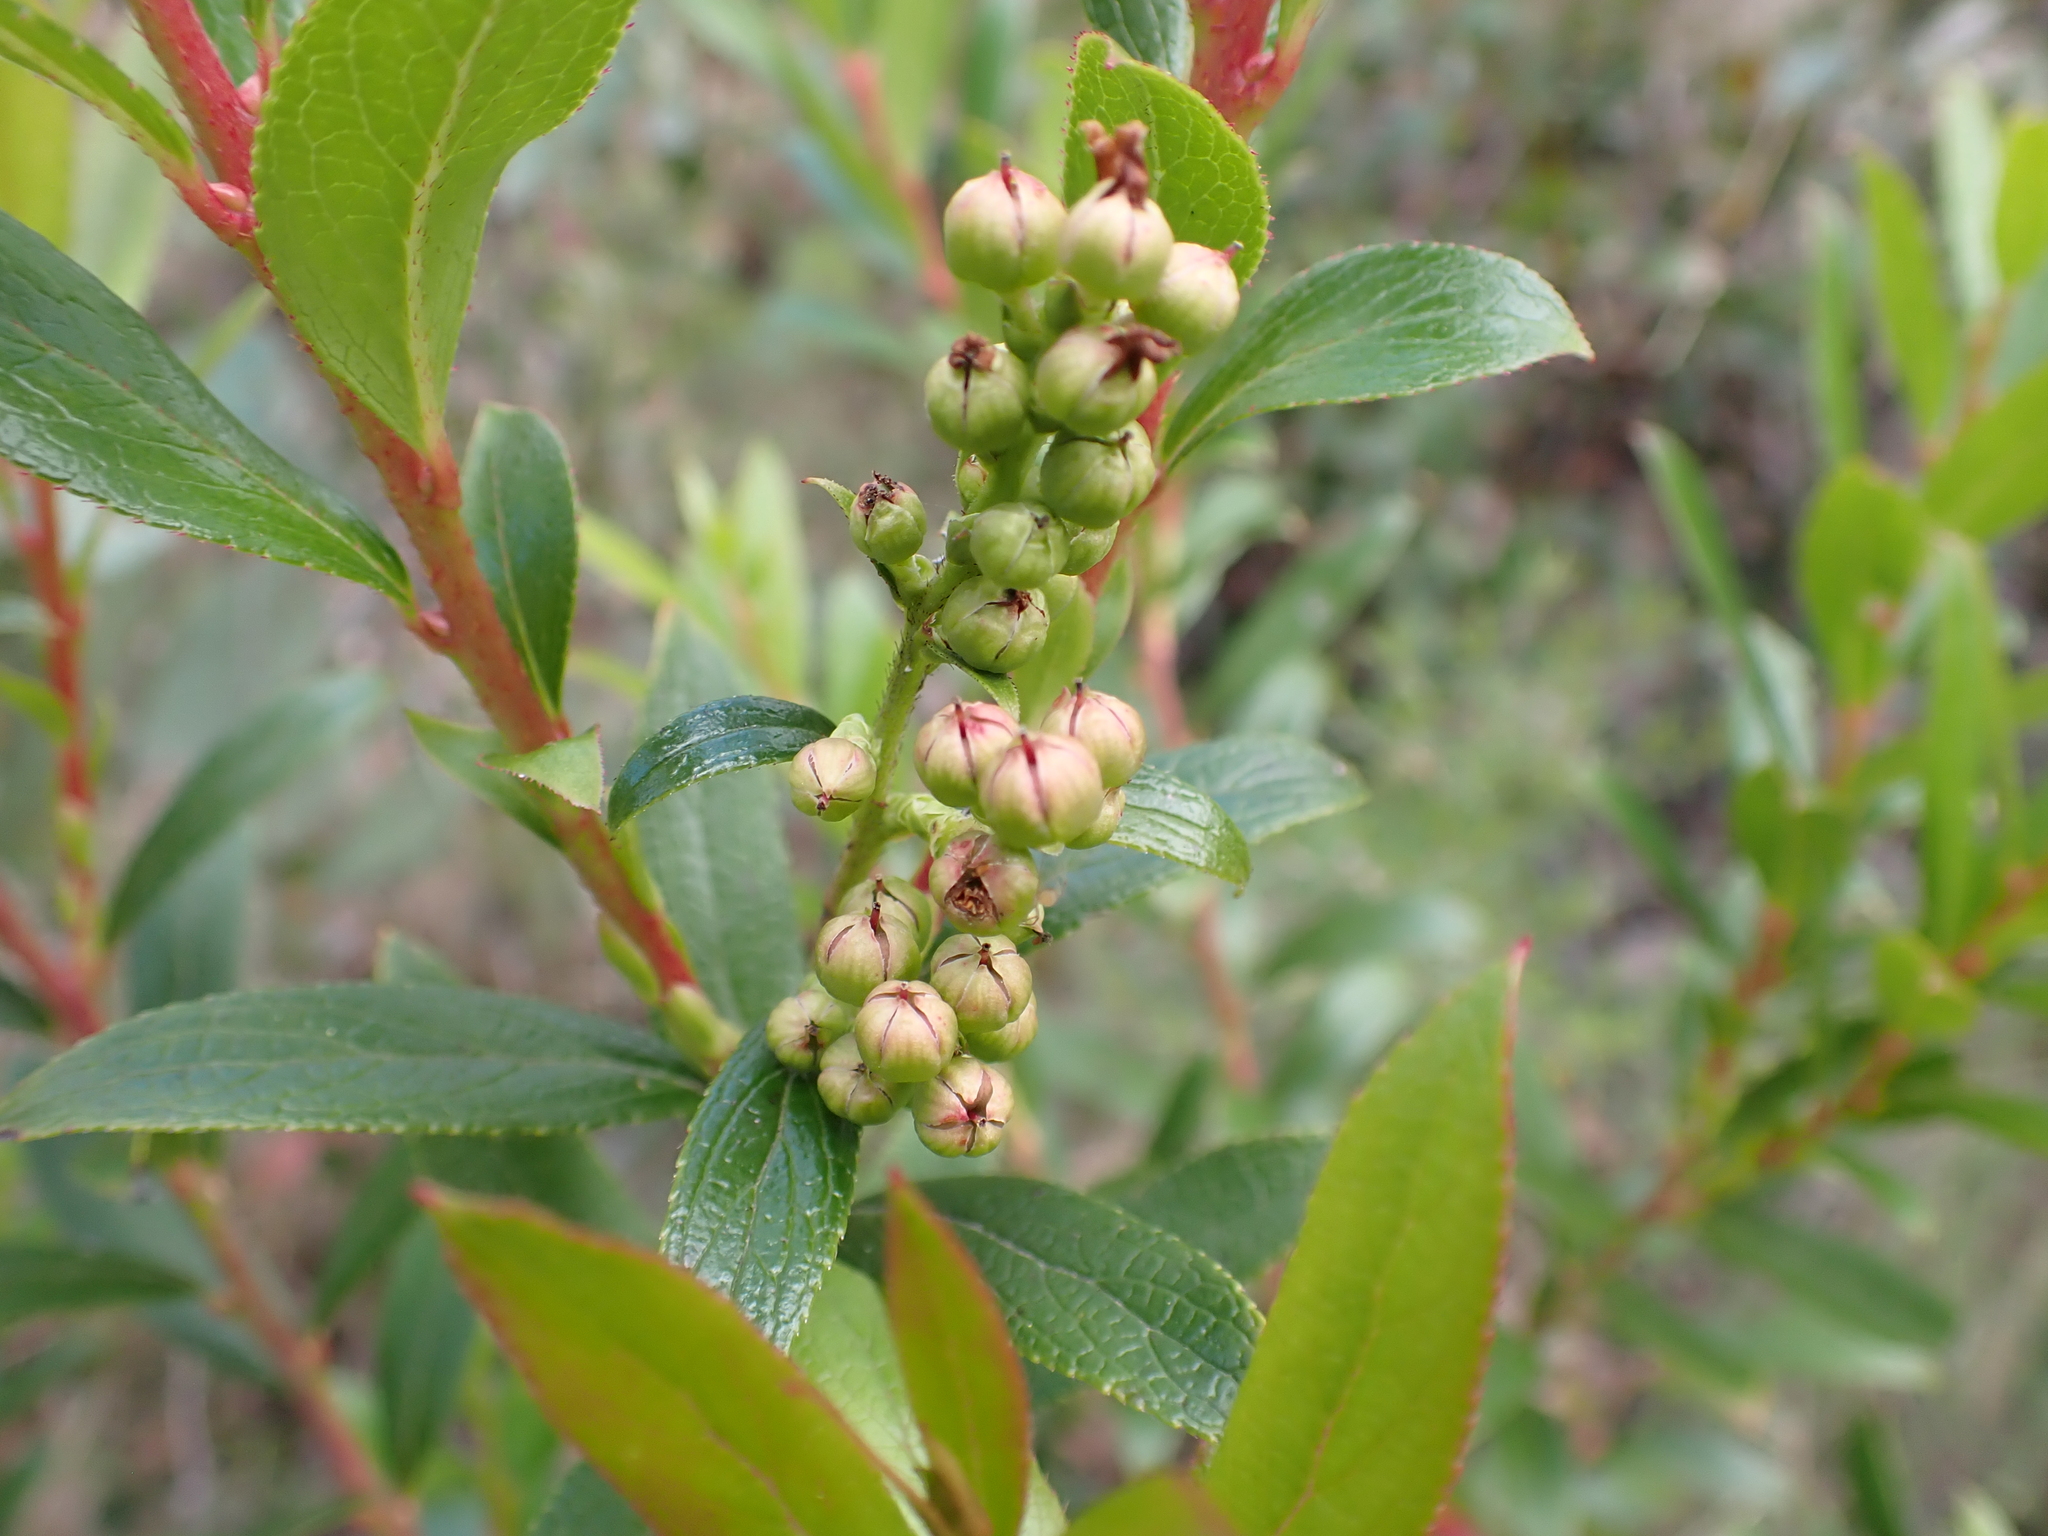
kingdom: Plantae
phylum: Tracheophyta
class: Magnoliopsida
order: Ericales
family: Ericaceae
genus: Gaultheria
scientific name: Gaultheria appressa
